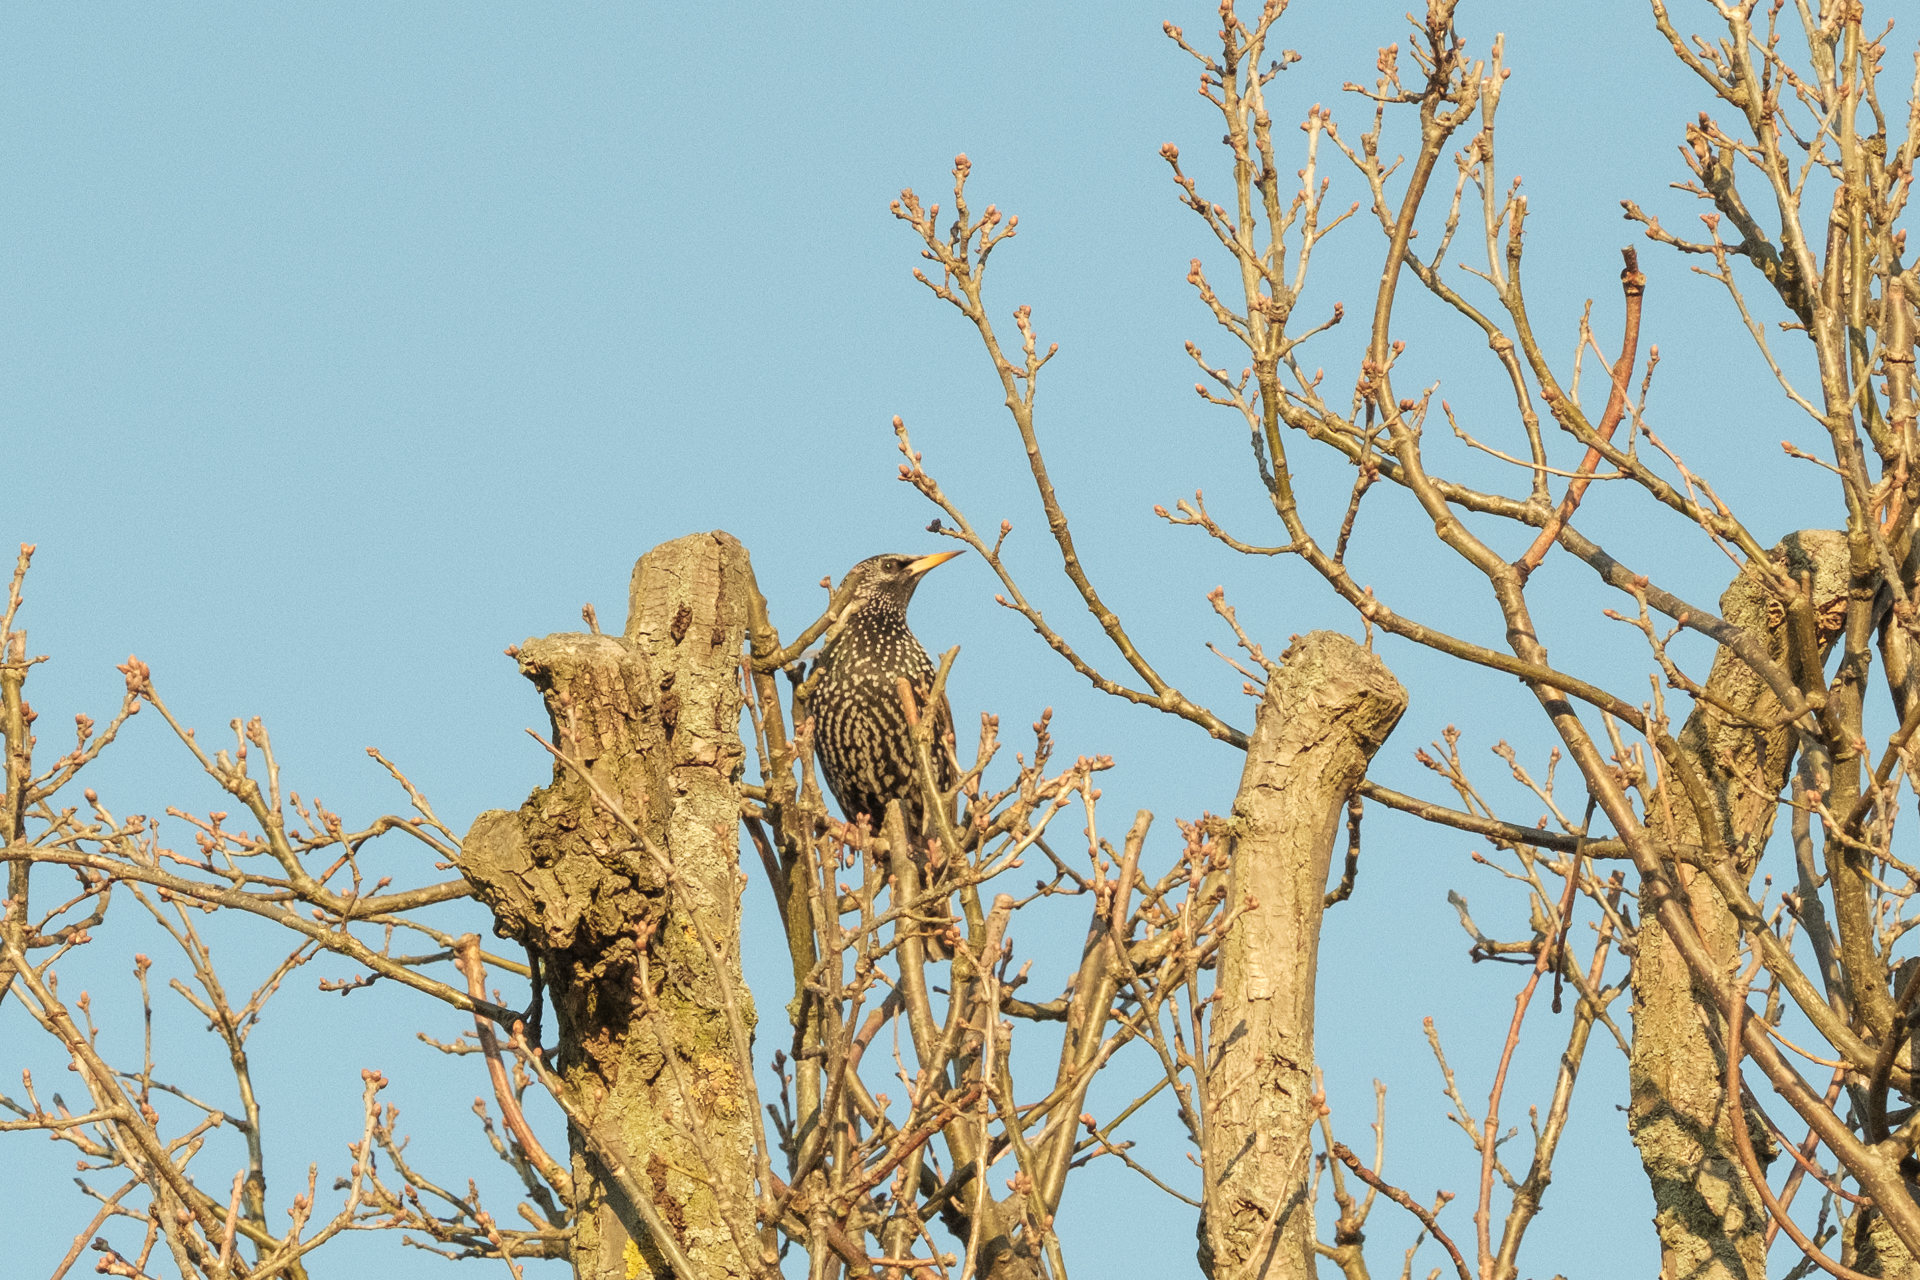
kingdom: Animalia
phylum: Chordata
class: Aves
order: Passeriformes
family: Sturnidae
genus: Sturnus
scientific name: Sturnus vulgaris
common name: Common starling
